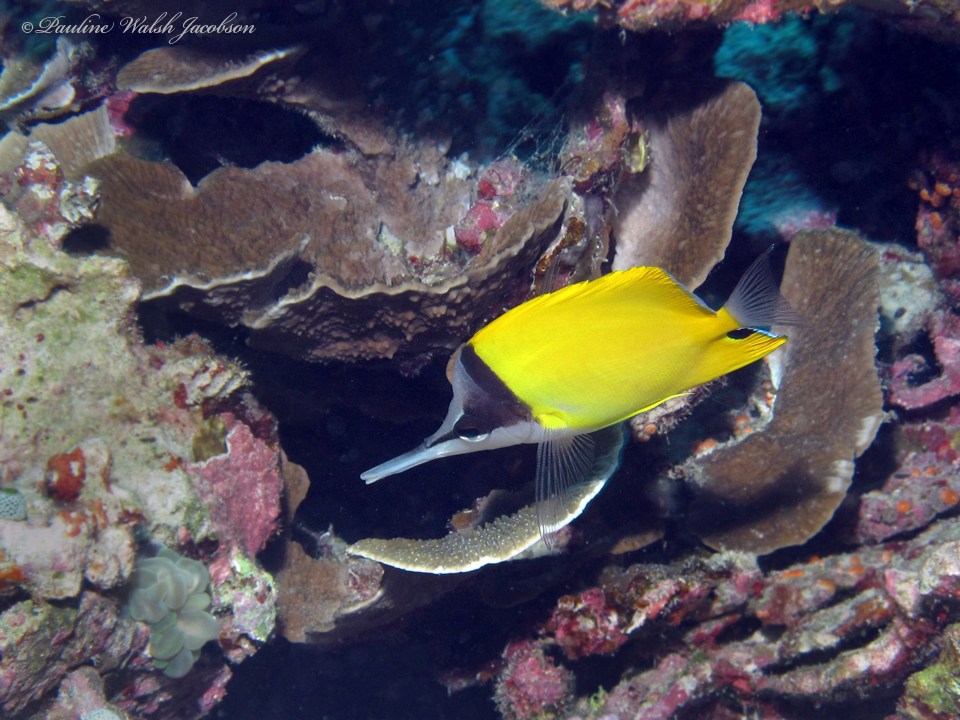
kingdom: Animalia
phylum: Chordata
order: Perciformes
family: Chaetodontidae
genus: Forcipiger
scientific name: Forcipiger flavissimus
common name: Forcepsfish
